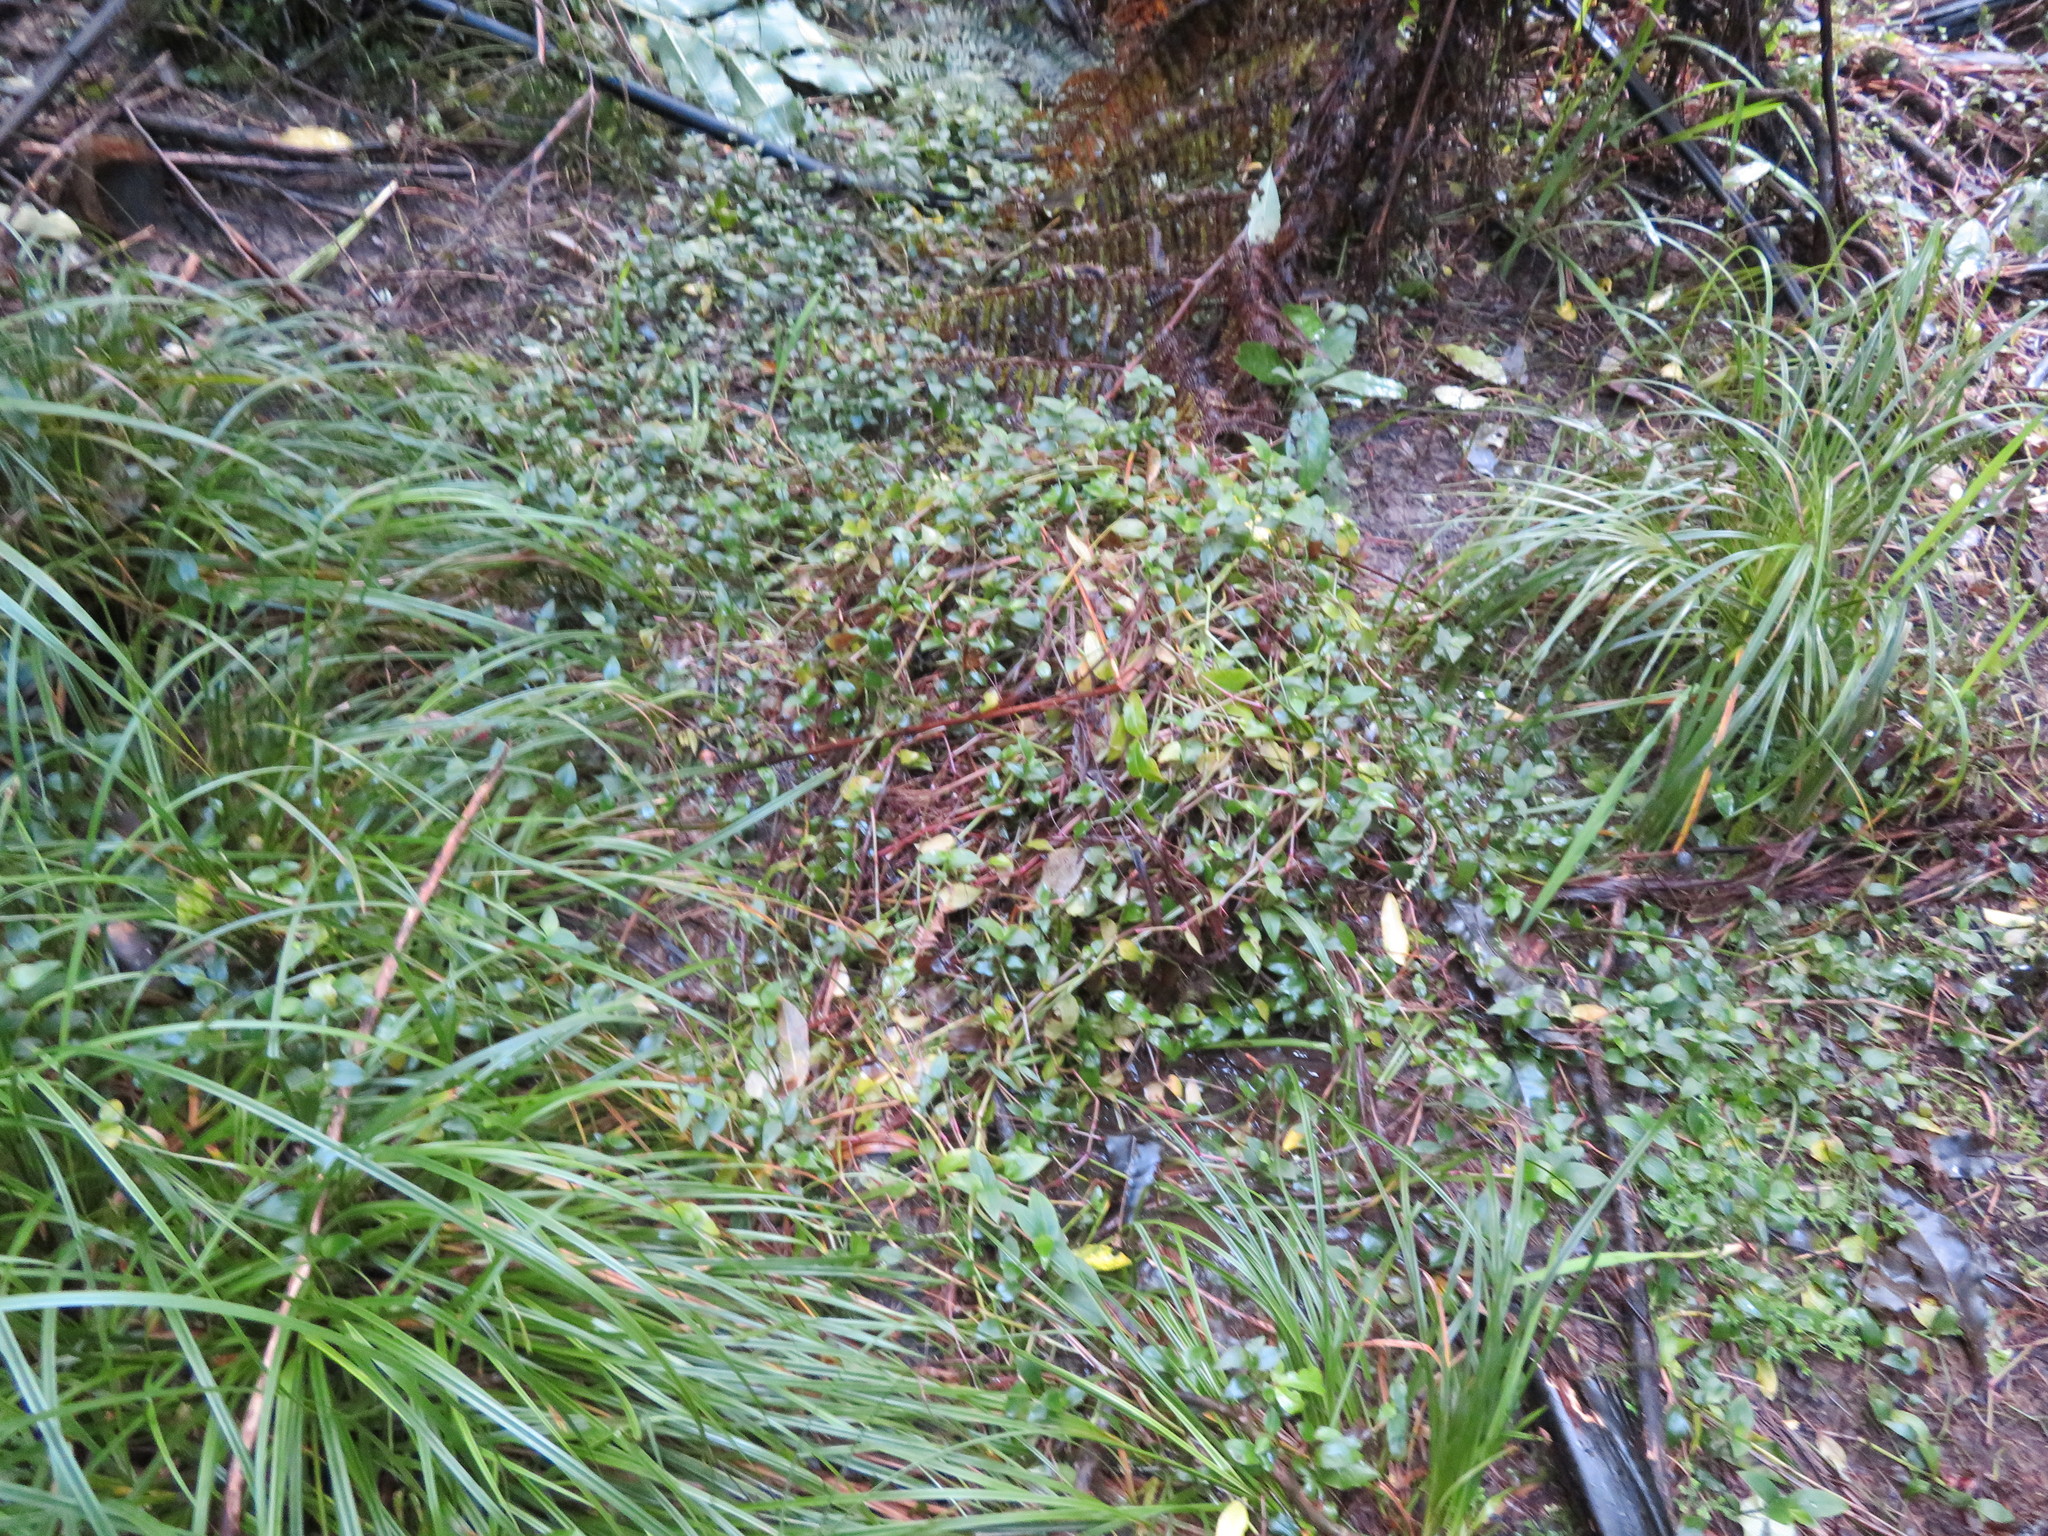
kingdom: Plantae
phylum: Tracheophyta
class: Liliopsida
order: Commelinales
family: Commelinaceae
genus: Tradescantia
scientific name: Tradescantia fluminensis
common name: Wandering-jew
